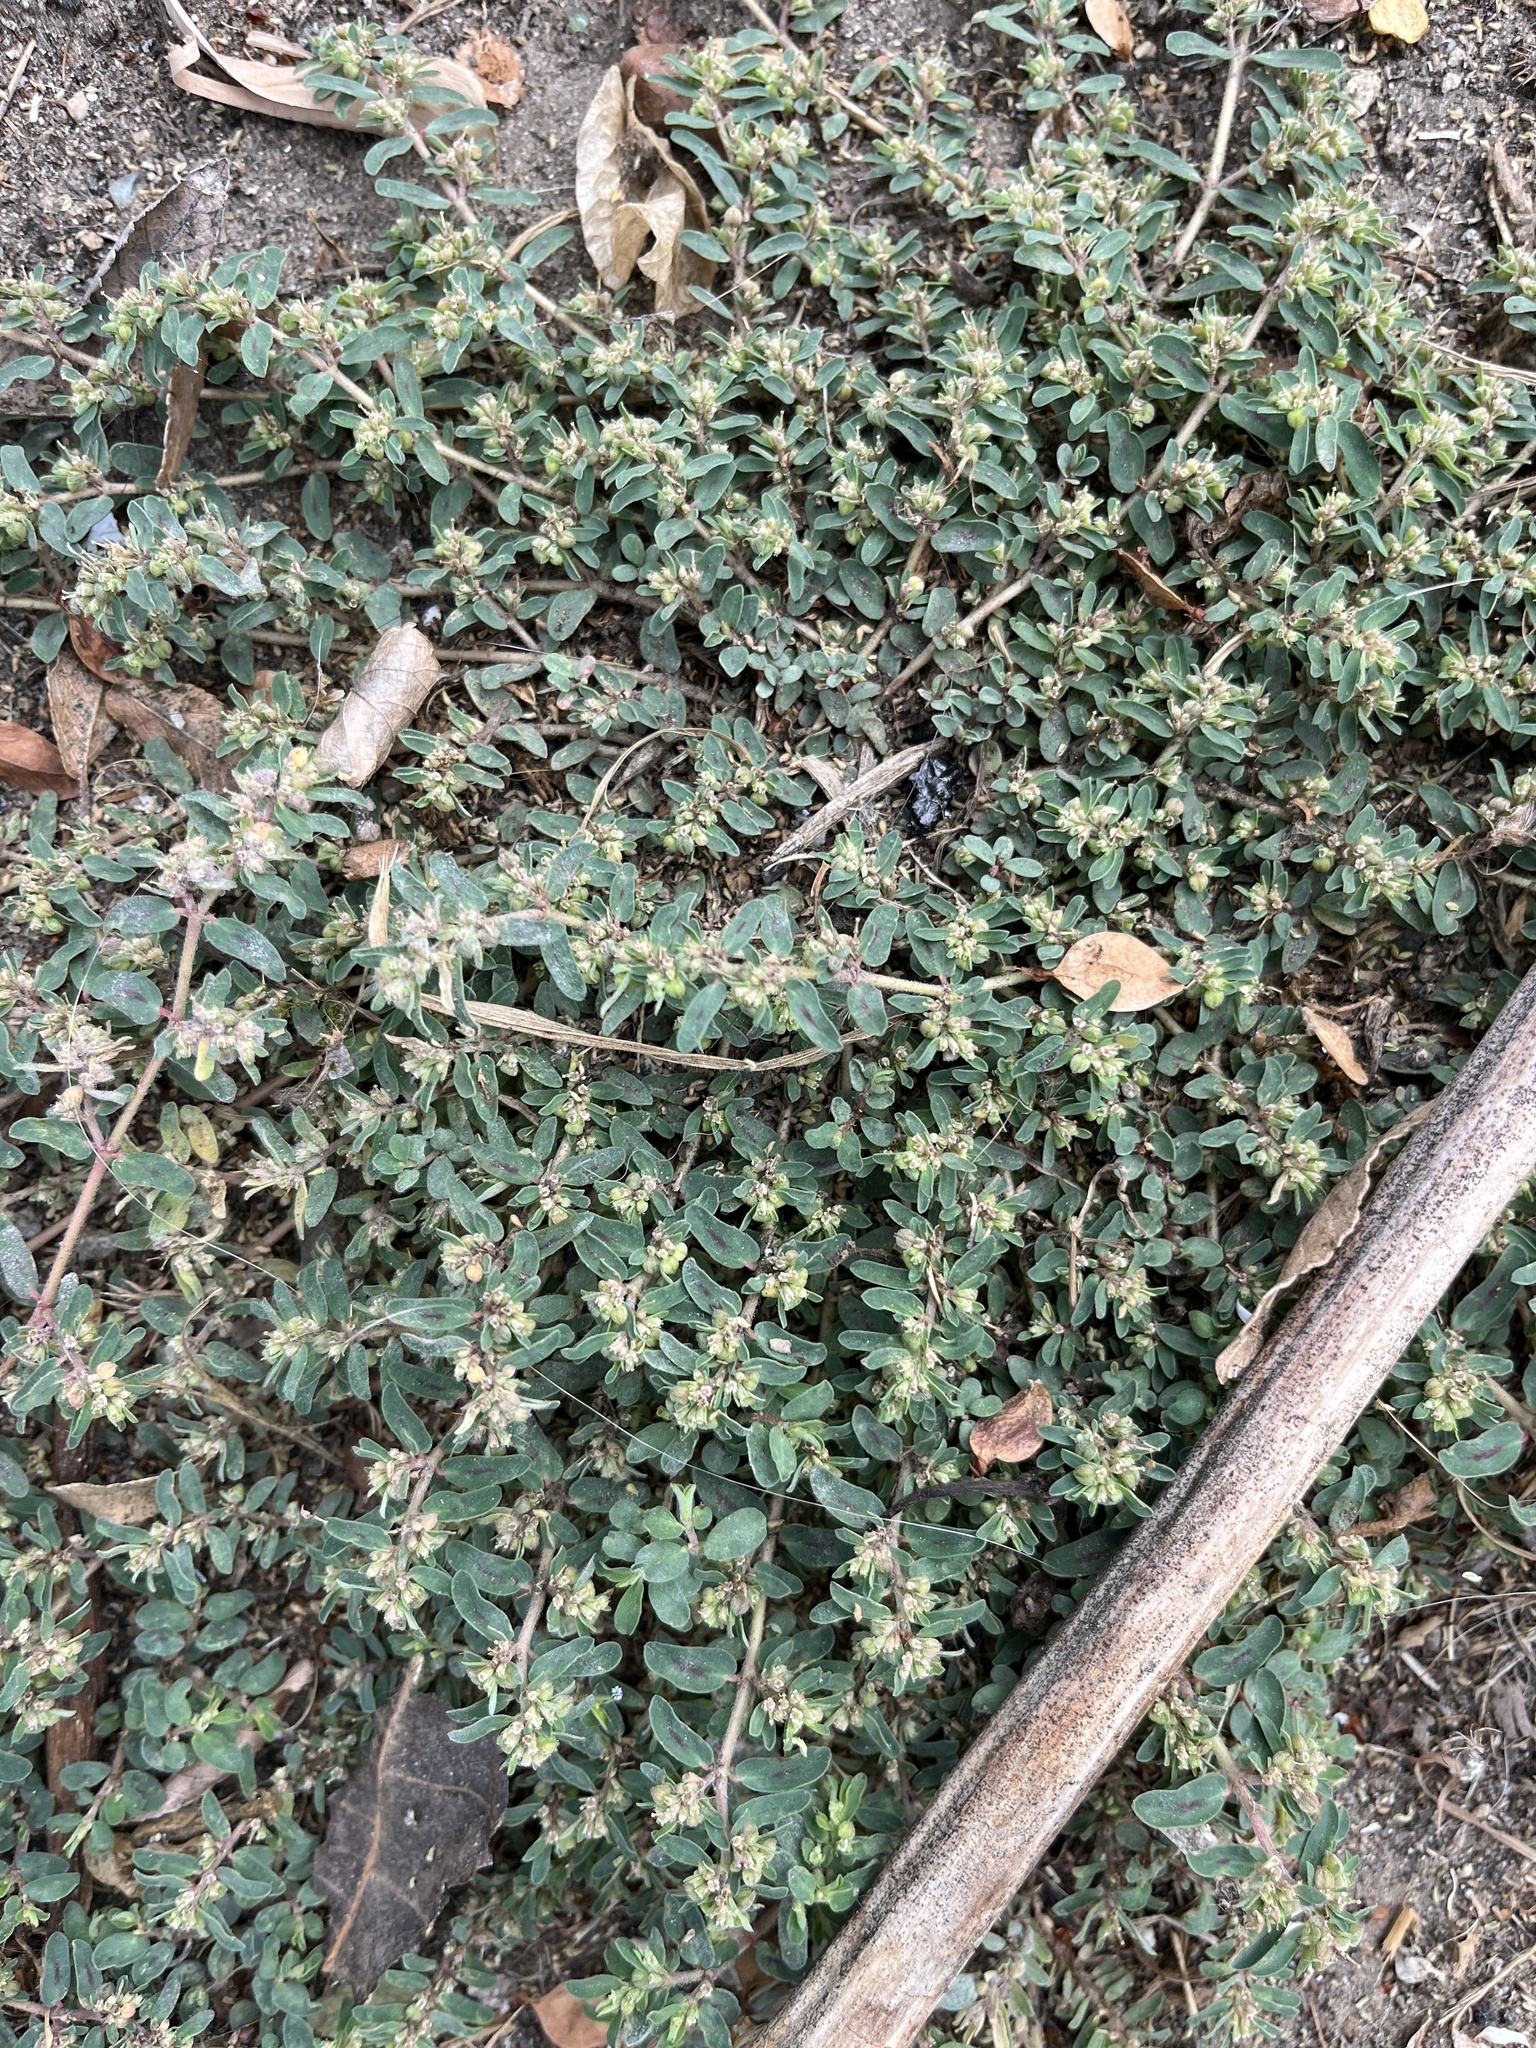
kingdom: Plantae
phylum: Tracheophyta
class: Magnoliopsida
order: Malpighiales
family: Euphorbiaceae
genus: Euphorbia
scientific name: Euphorbia maculata
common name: Spotted spurge
